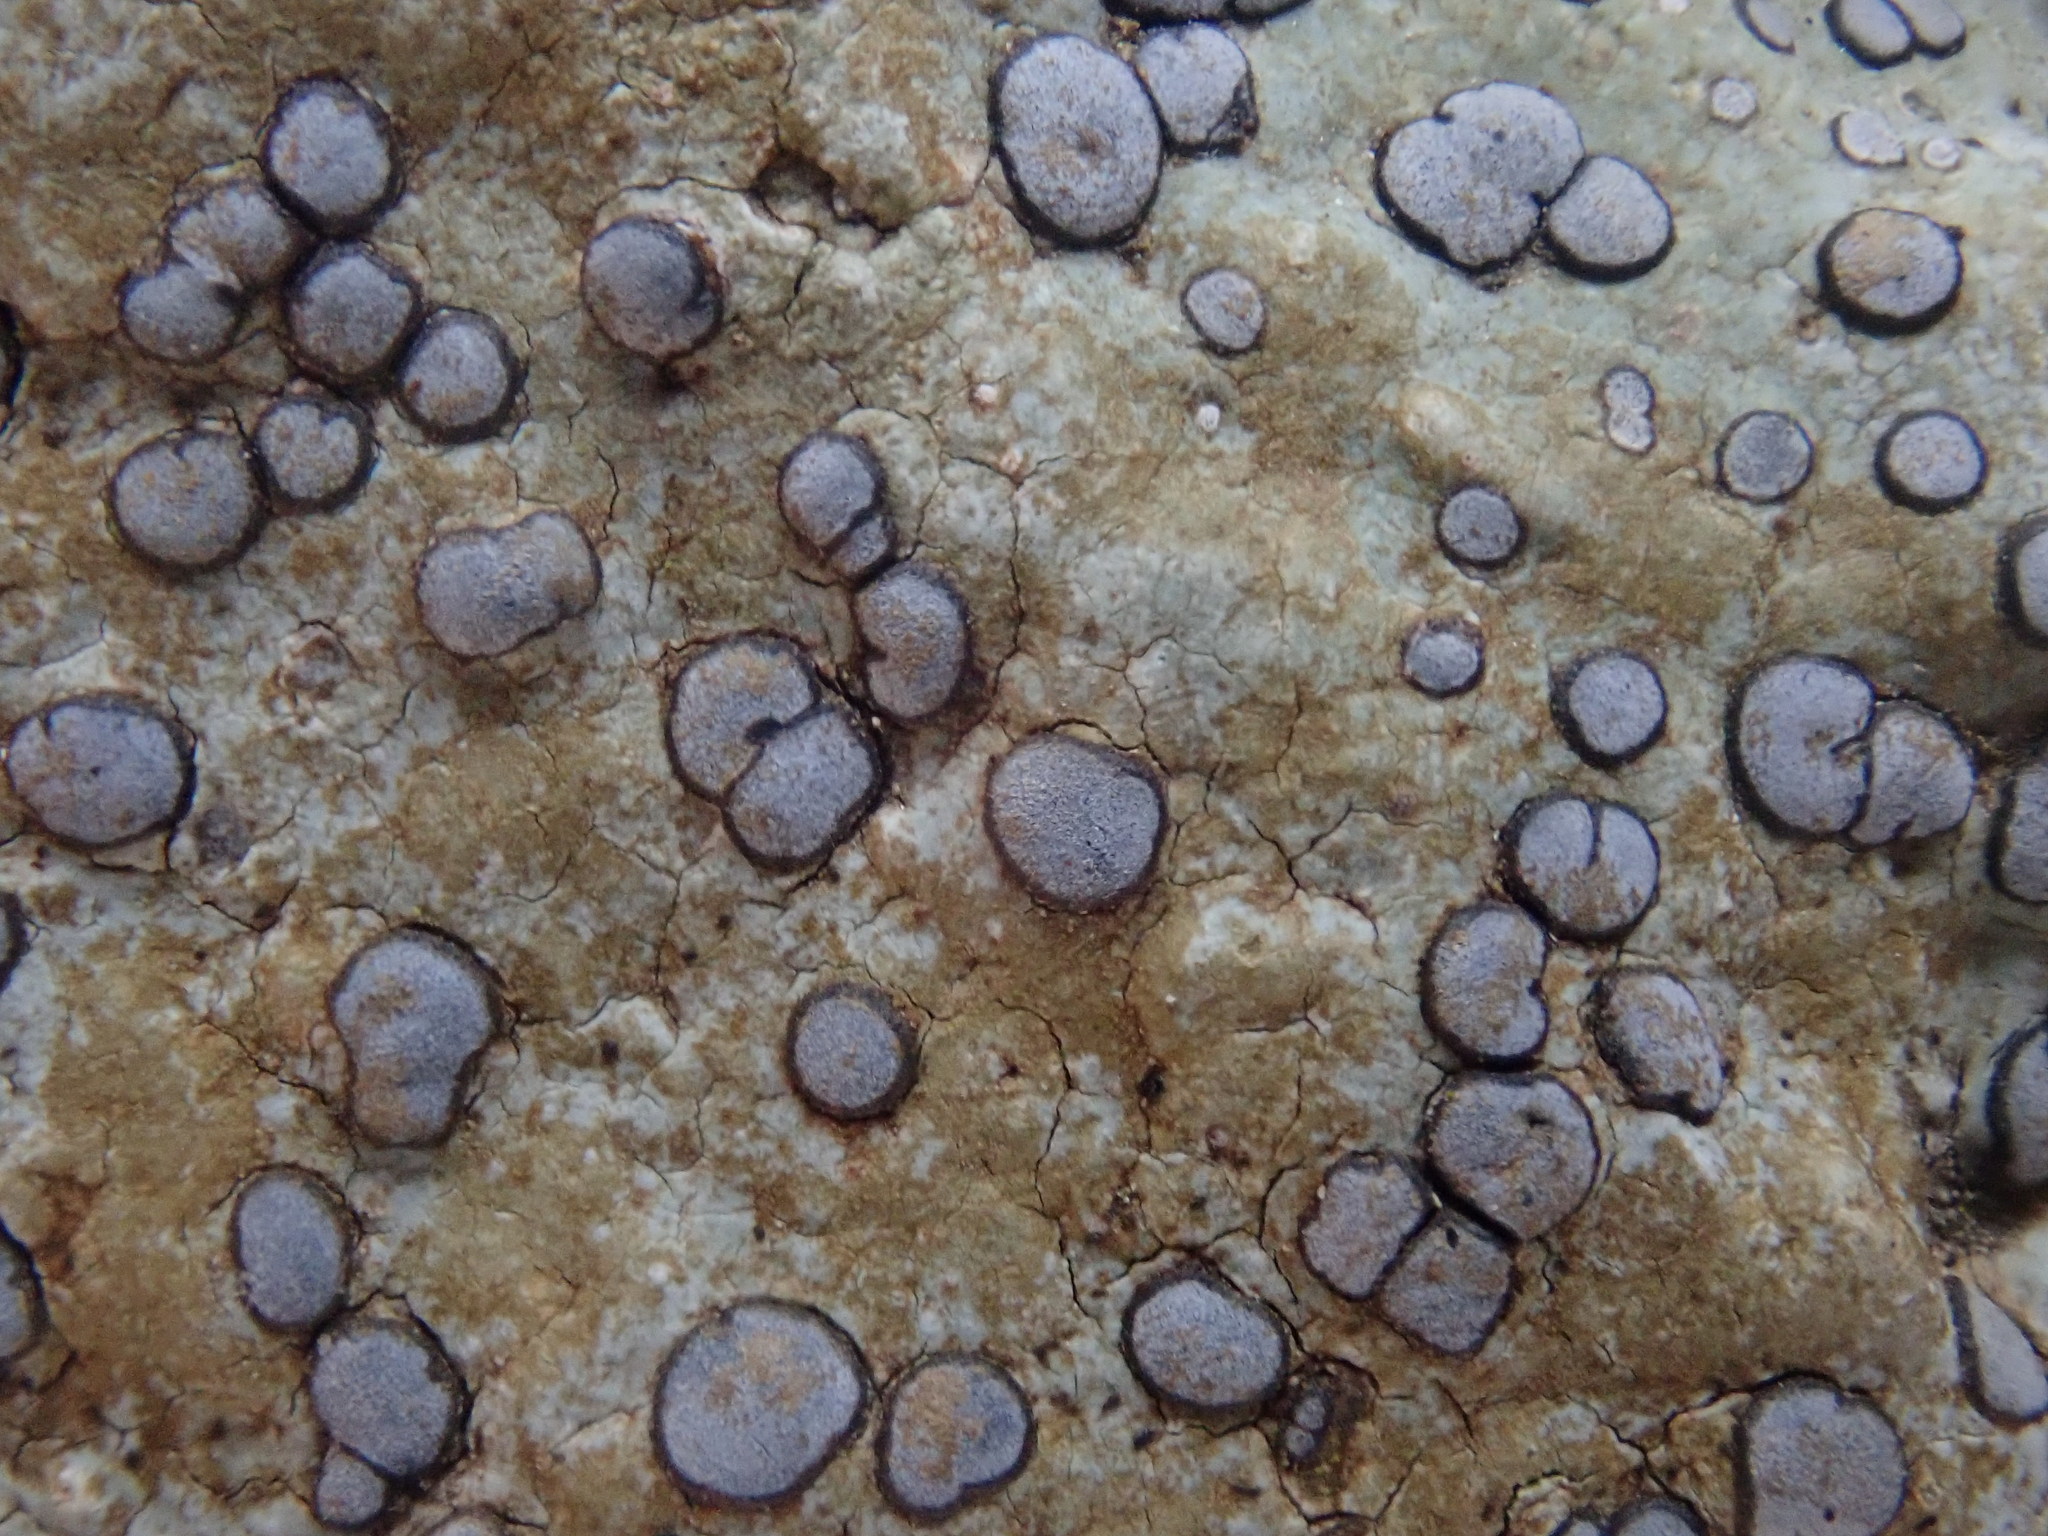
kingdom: Fungi
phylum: Ascomycota
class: Lecanoromycetes
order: Lecideales
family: Lecideaceae
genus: Porpidia
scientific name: Porpidia albocaerulescens
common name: Smokey-eyed boulder lichen
